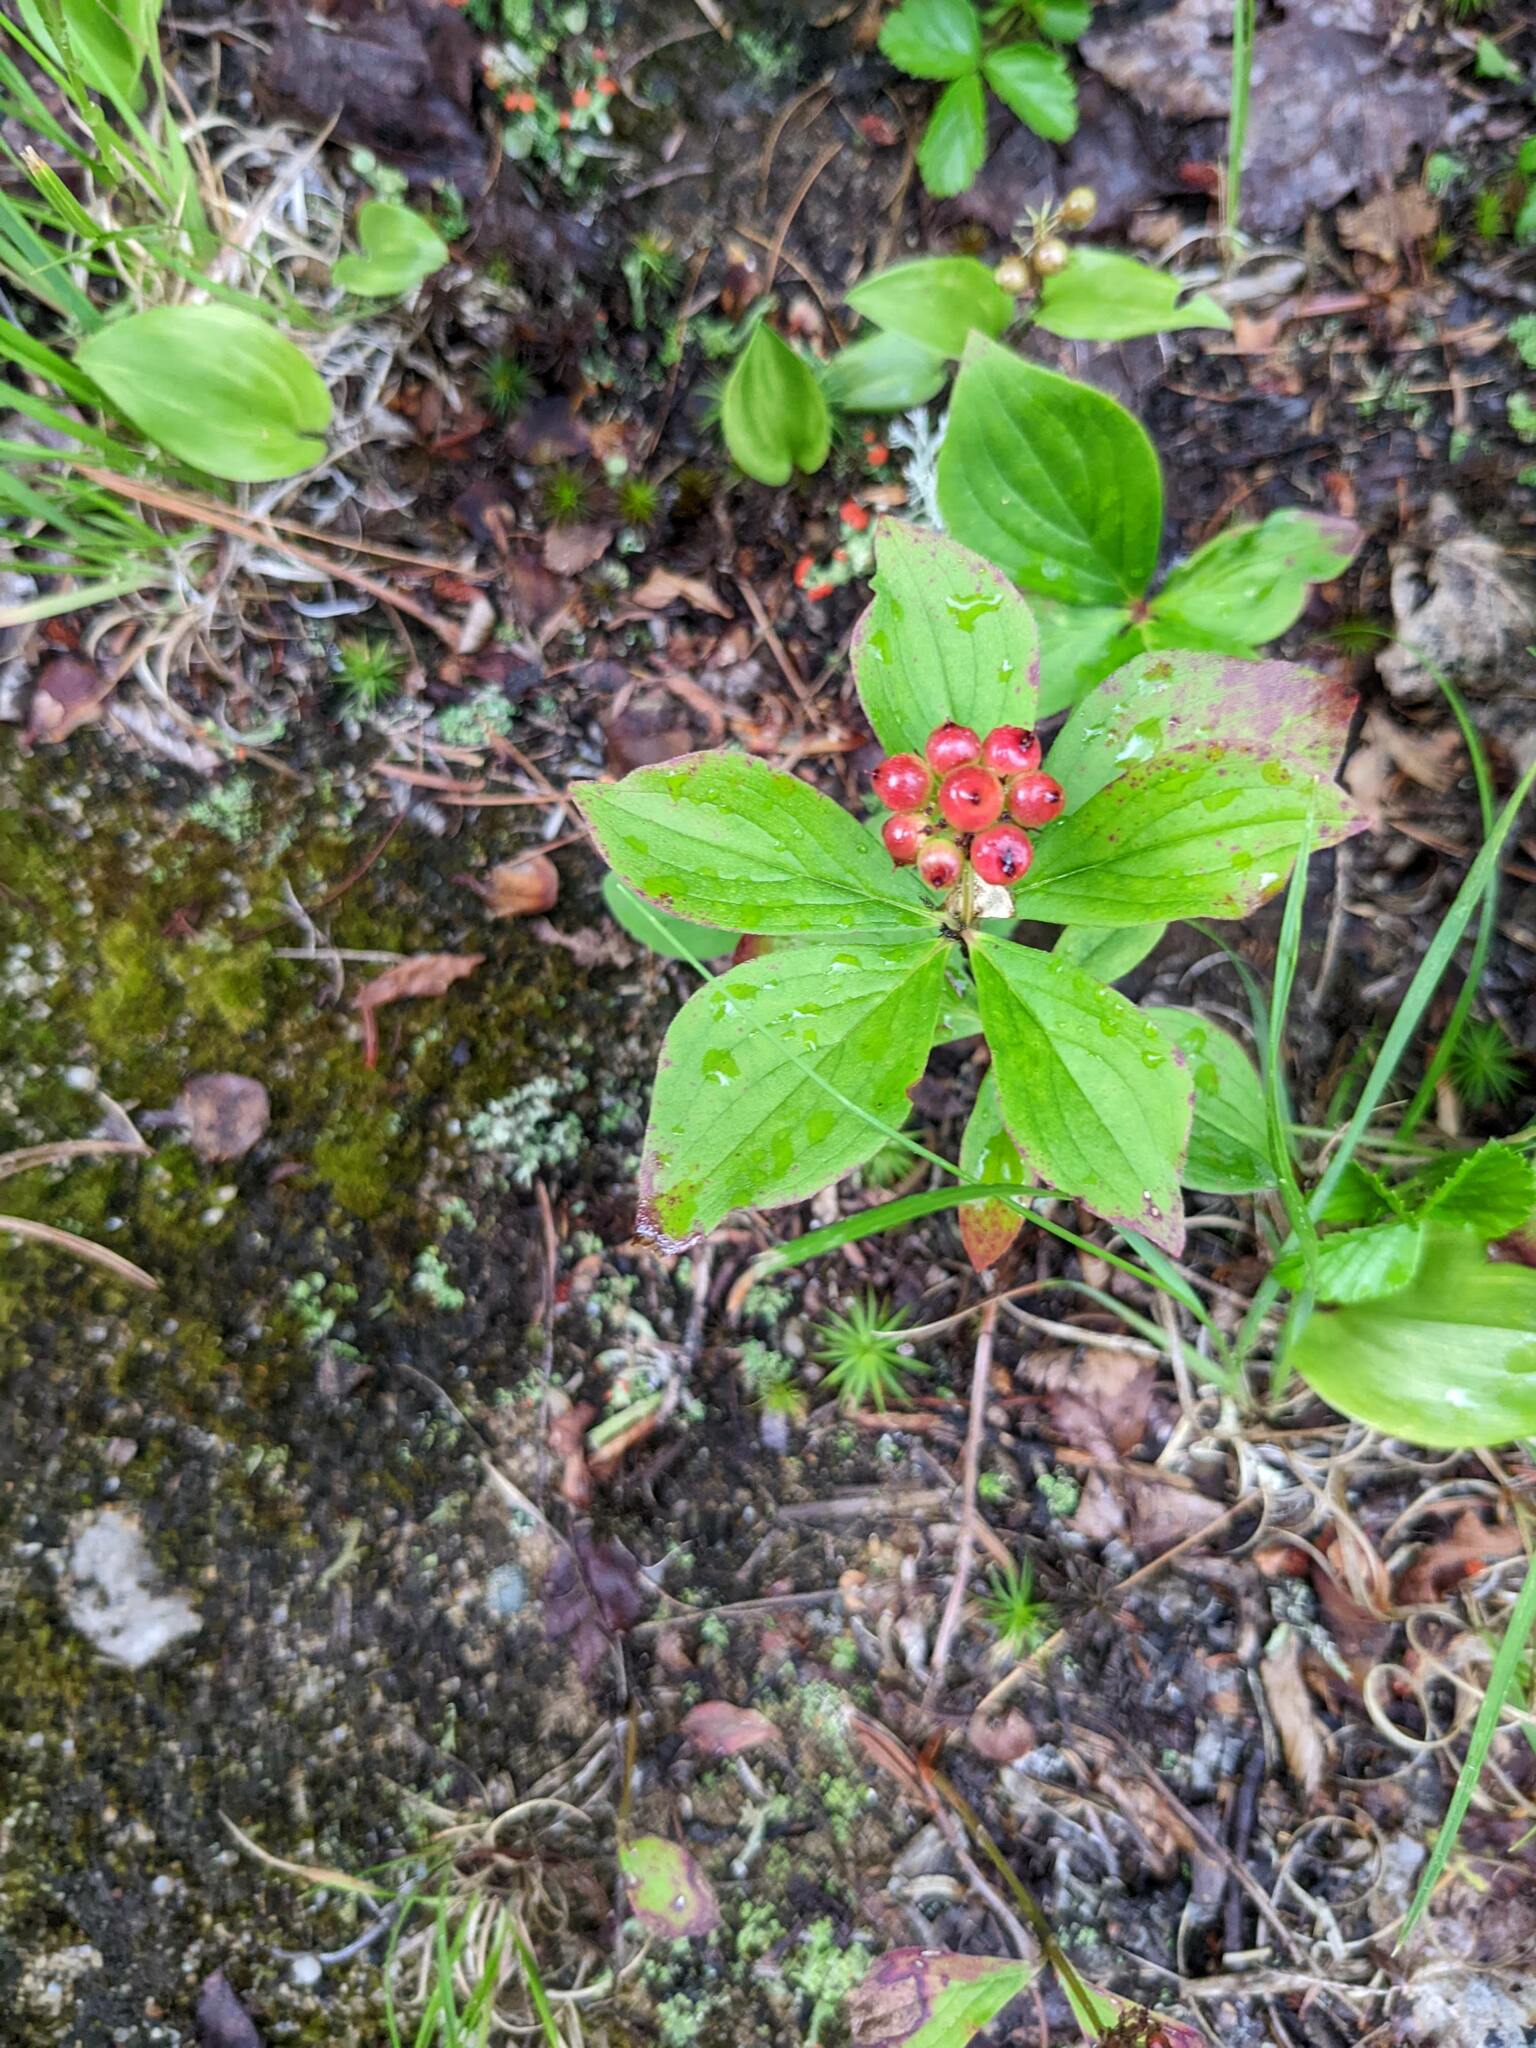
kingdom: Plantae
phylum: Tracheophyta
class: Magnoliopsida
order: Cornales
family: Cornaceae
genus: Cornus
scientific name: Cornus canadensis
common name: Creeping dogwood
